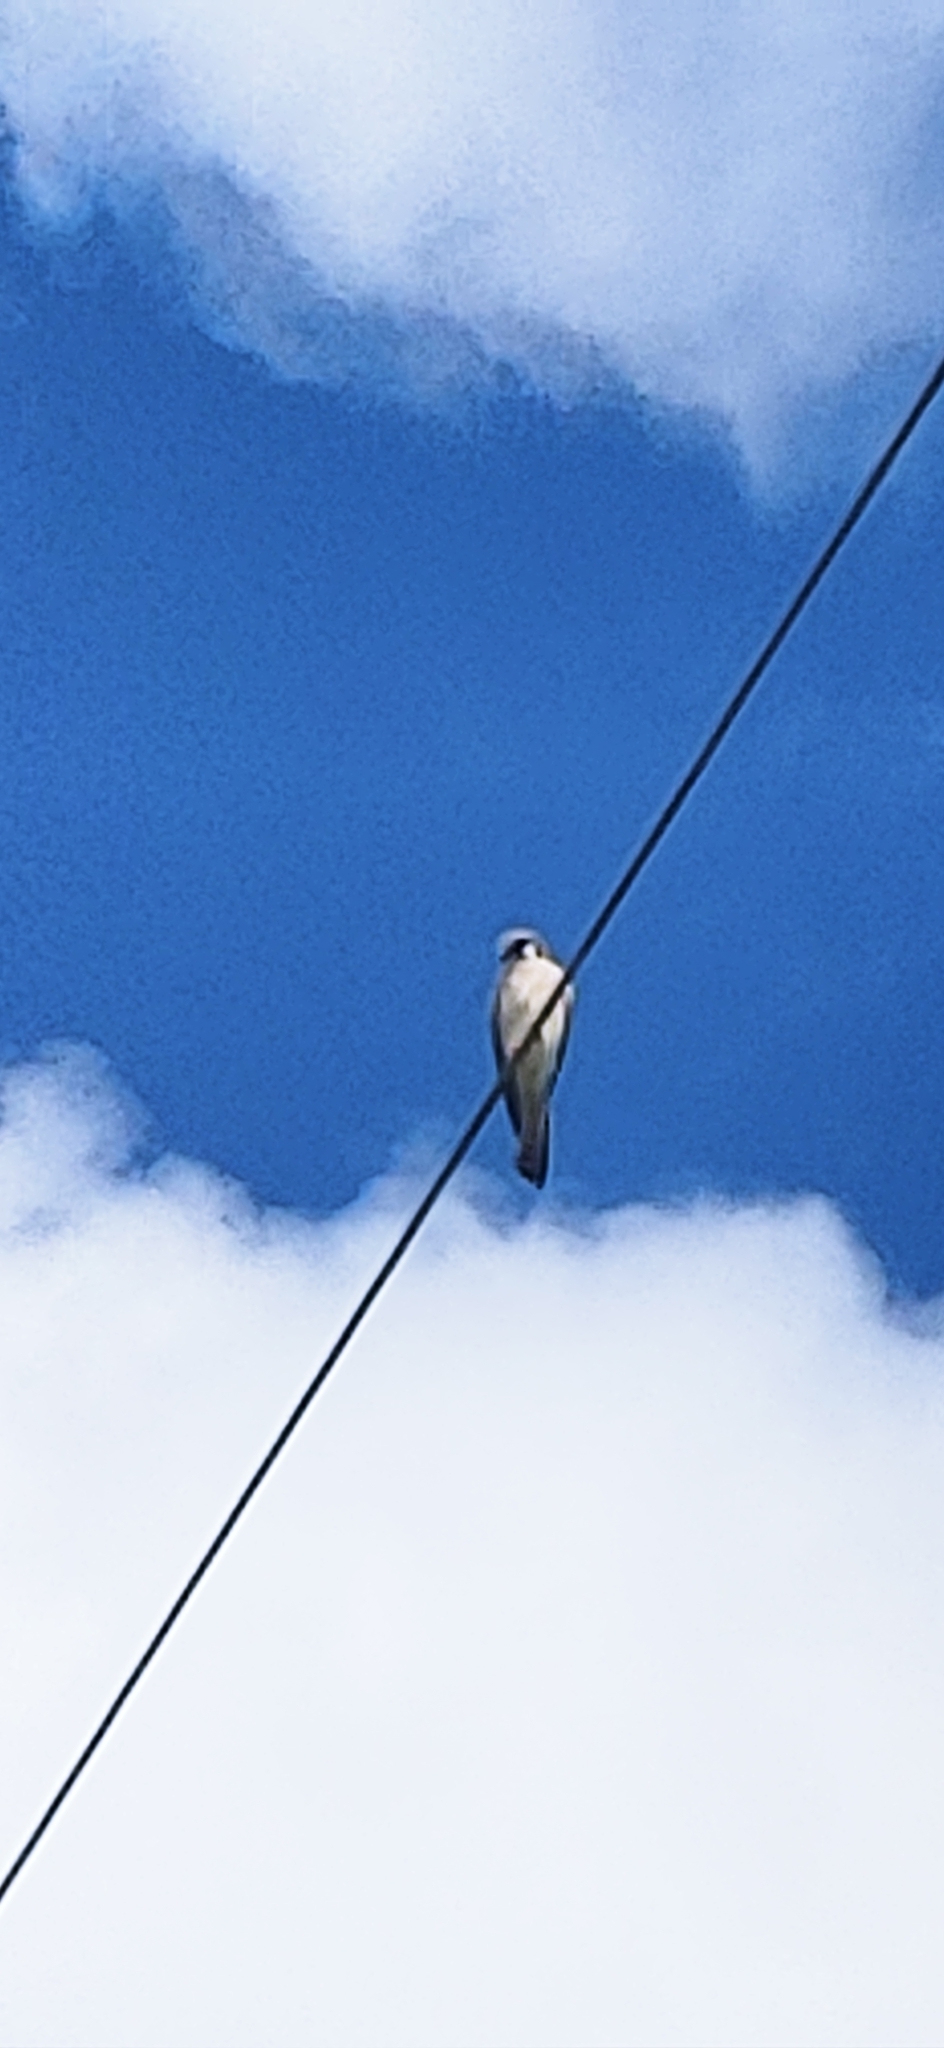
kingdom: Animalia
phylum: Chordata
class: Aves
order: Falconiformes
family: Falconidae
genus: Falco
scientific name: Falco sparverius
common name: American kestrel
